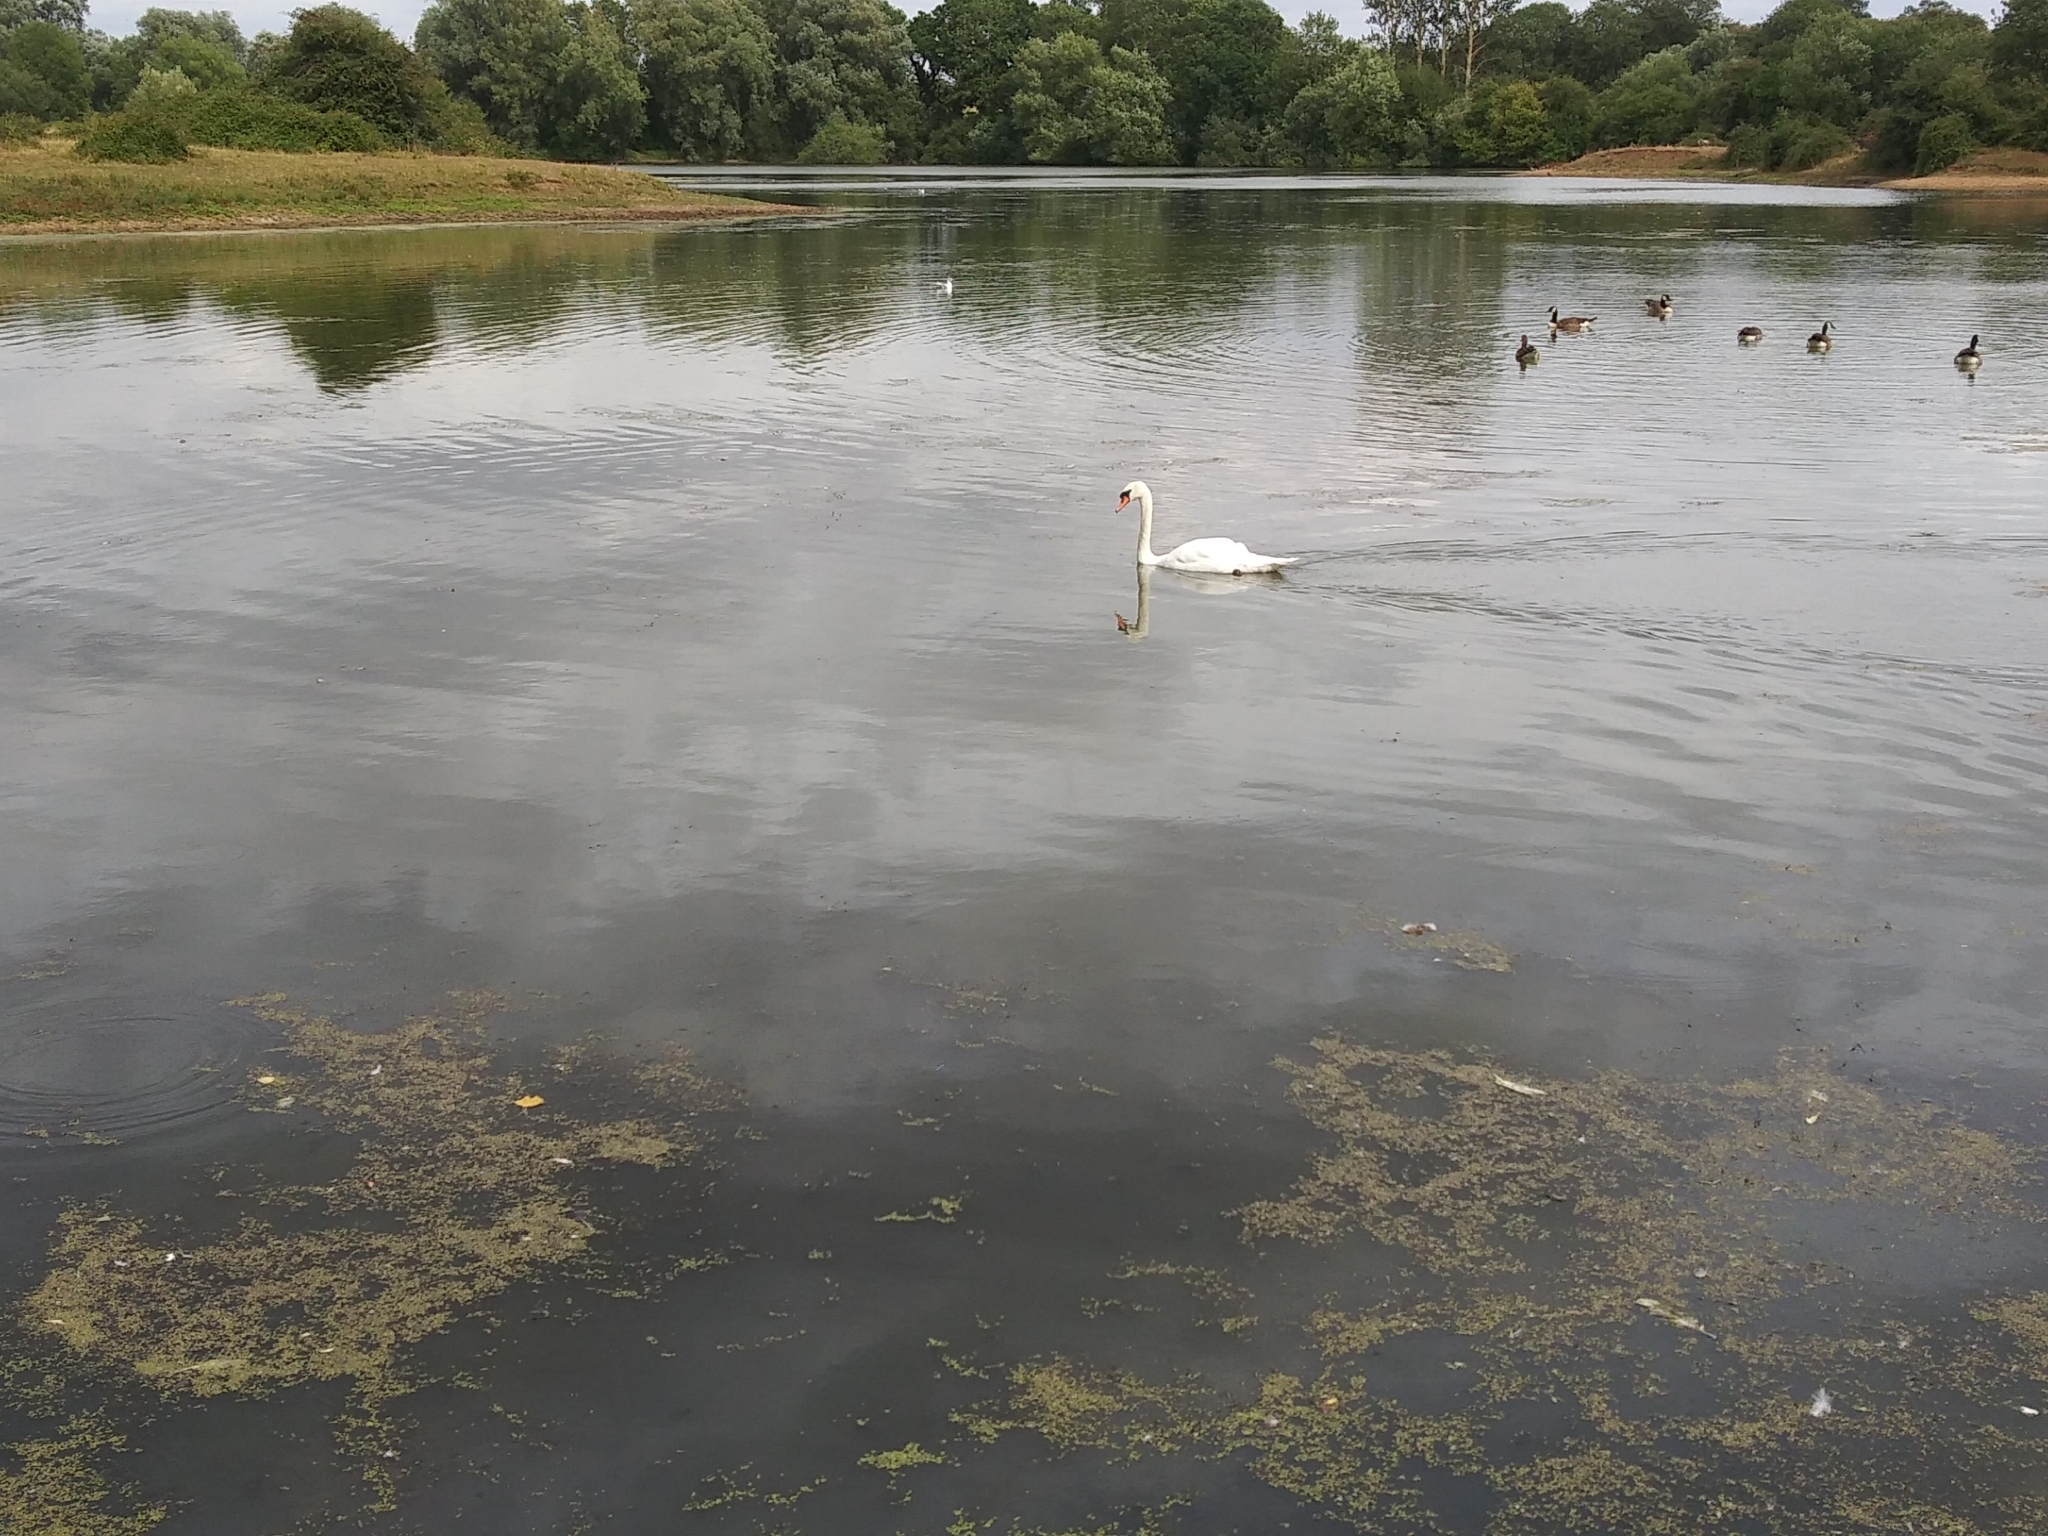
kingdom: Animalia
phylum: Chordata
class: Aves
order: Anseriformes
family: Anatidae
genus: Cygnus
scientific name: Cygnus olor
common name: Mute swan
